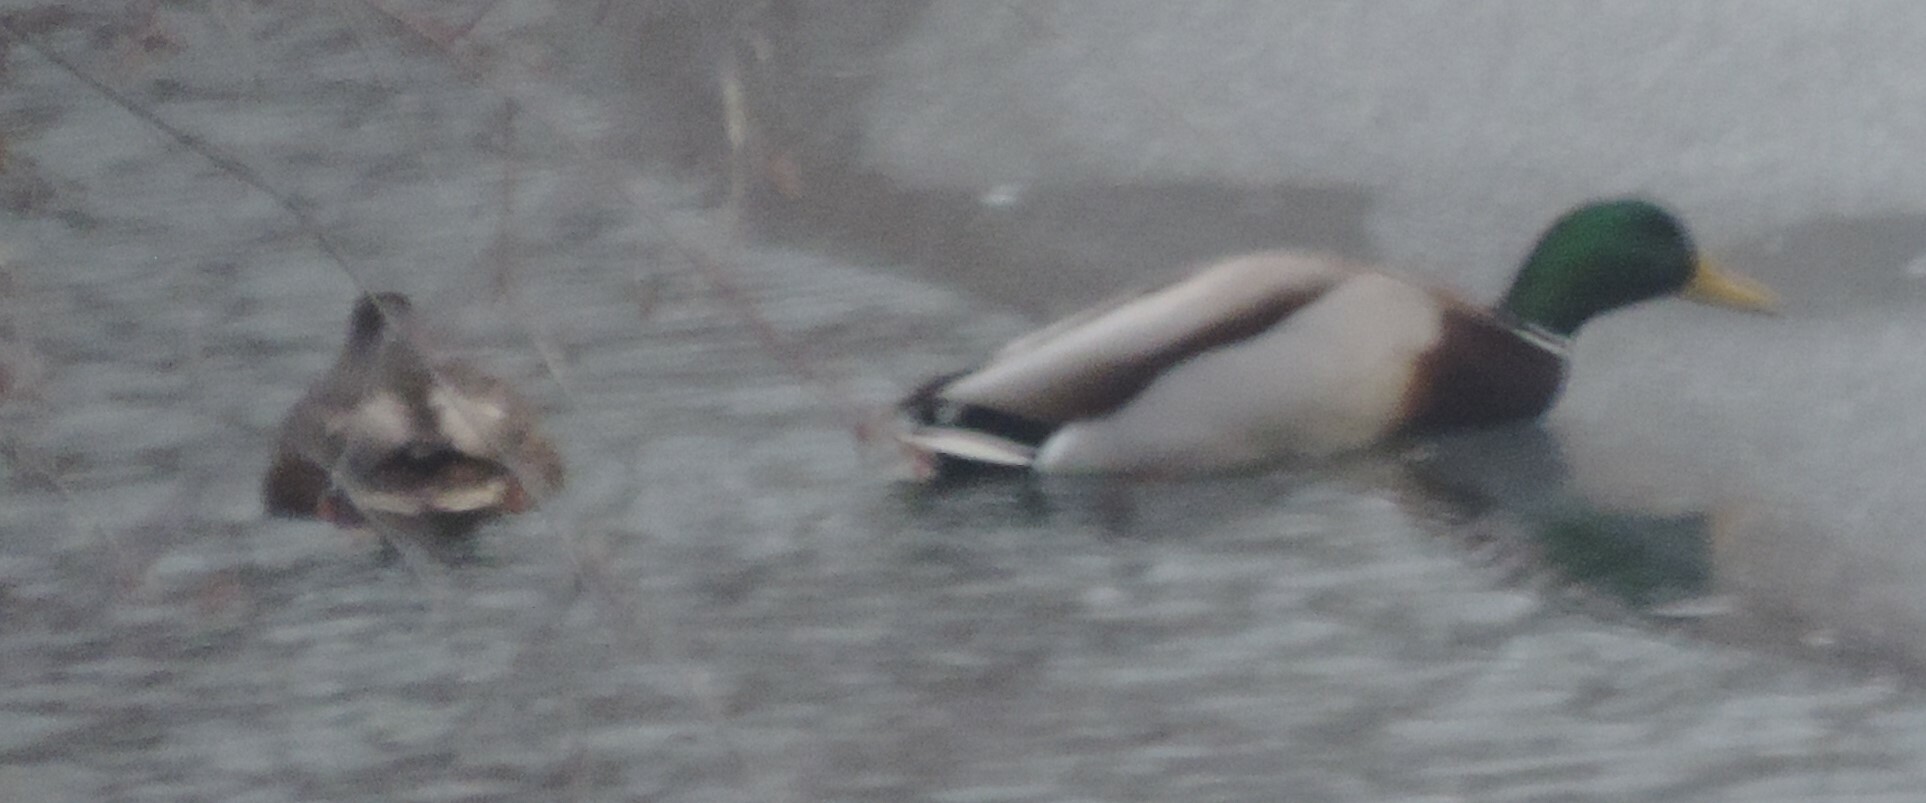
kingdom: Animalia
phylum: Chordata
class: Aves
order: Anseriformes
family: Anatidae
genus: Anas
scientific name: Anas platyrhynchos
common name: Mallard
